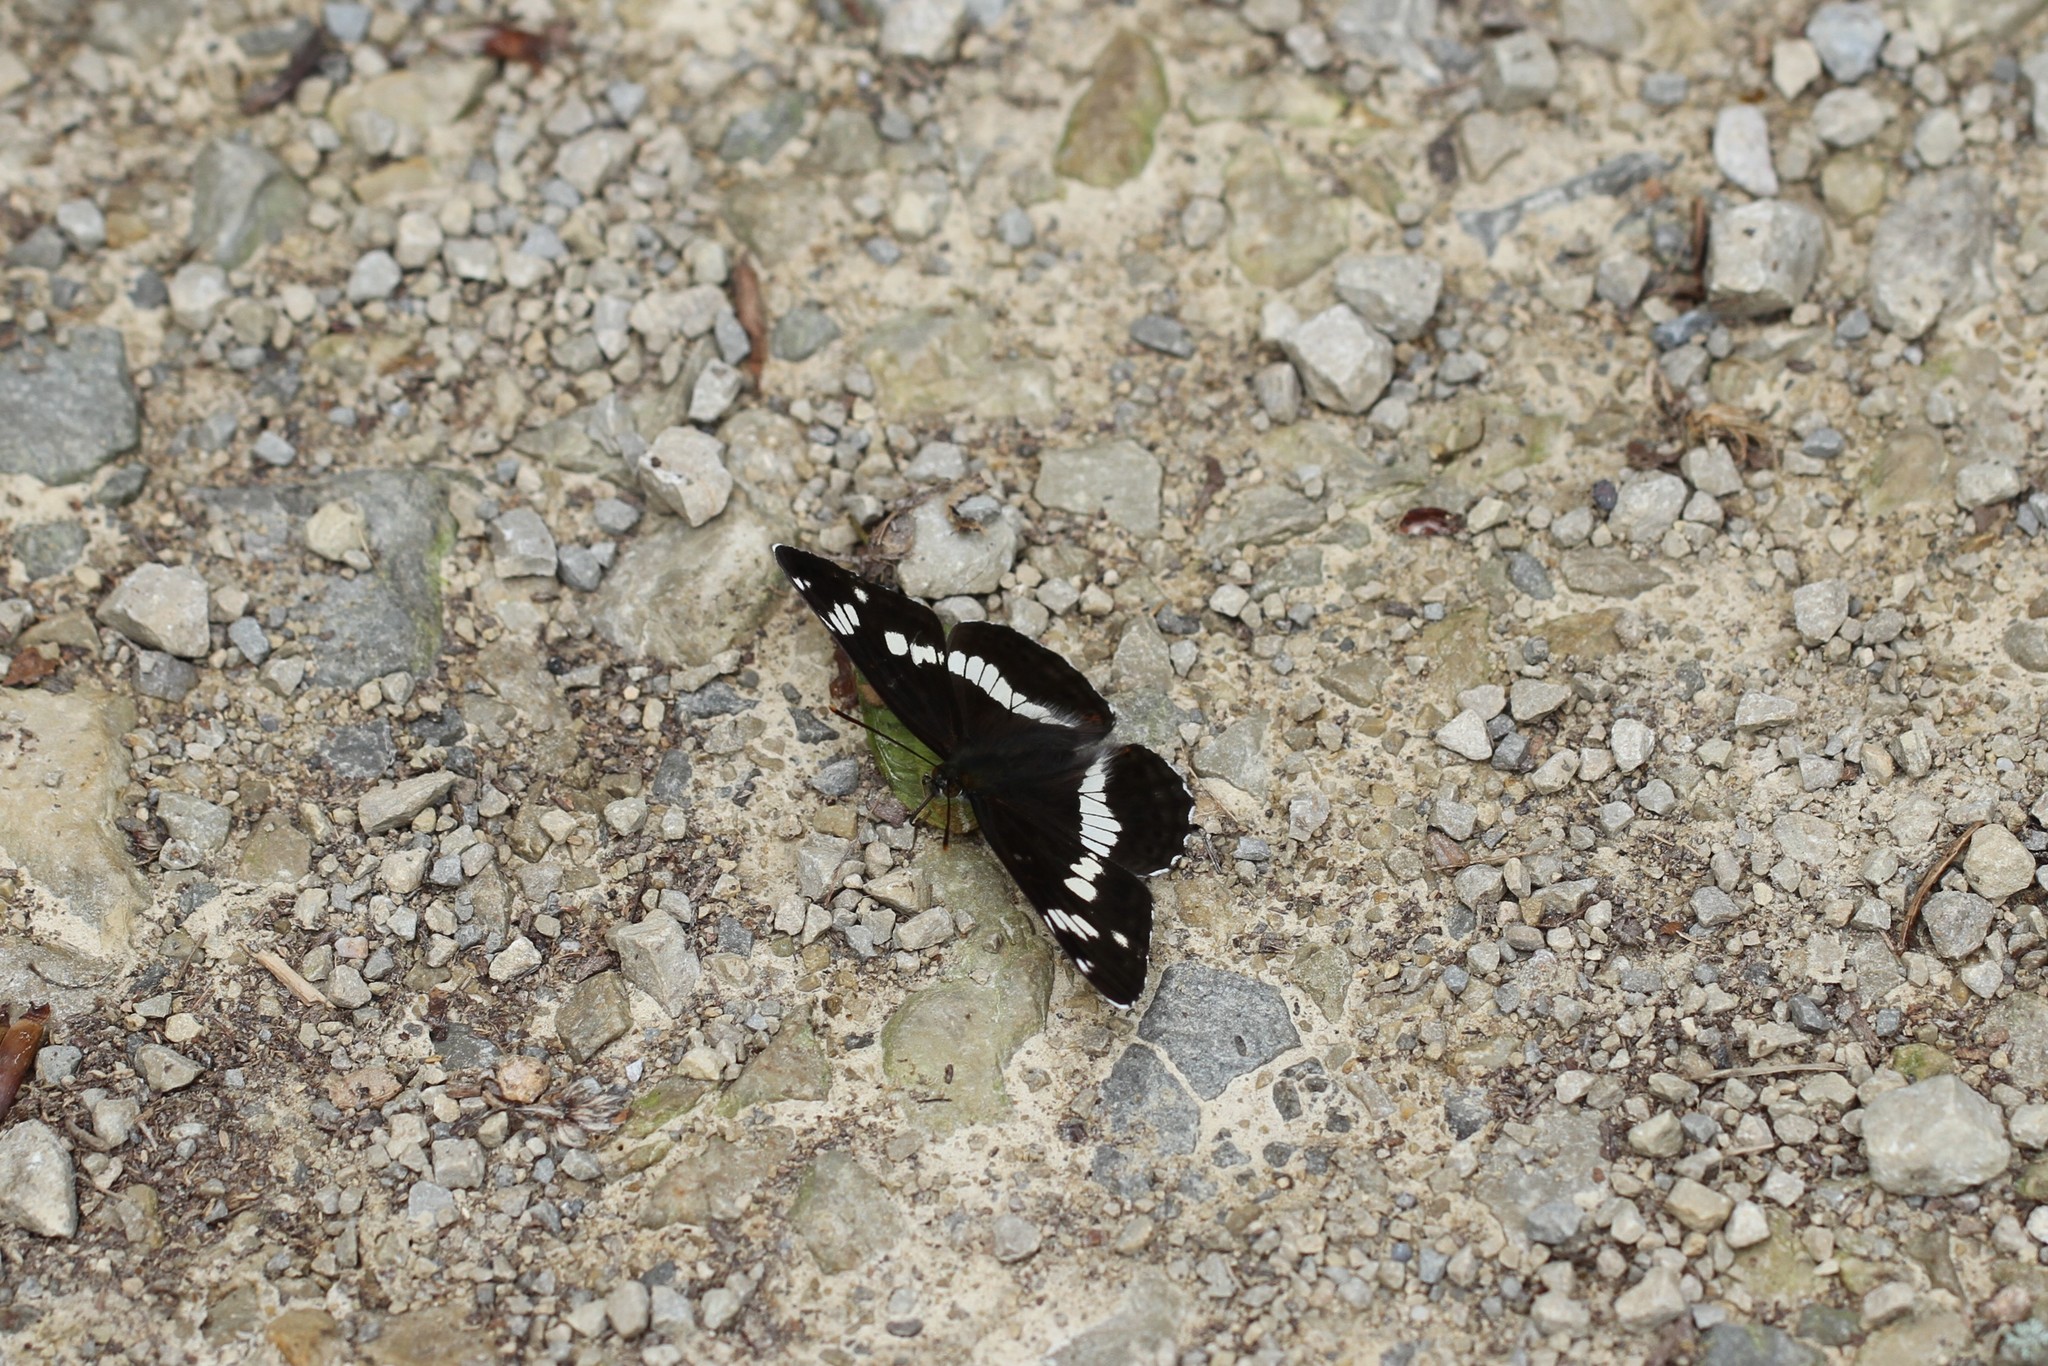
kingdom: Animalia
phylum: Arthropoda
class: Insecta
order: Lepidoptera
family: Nymphalidae
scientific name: Nymphalidae
